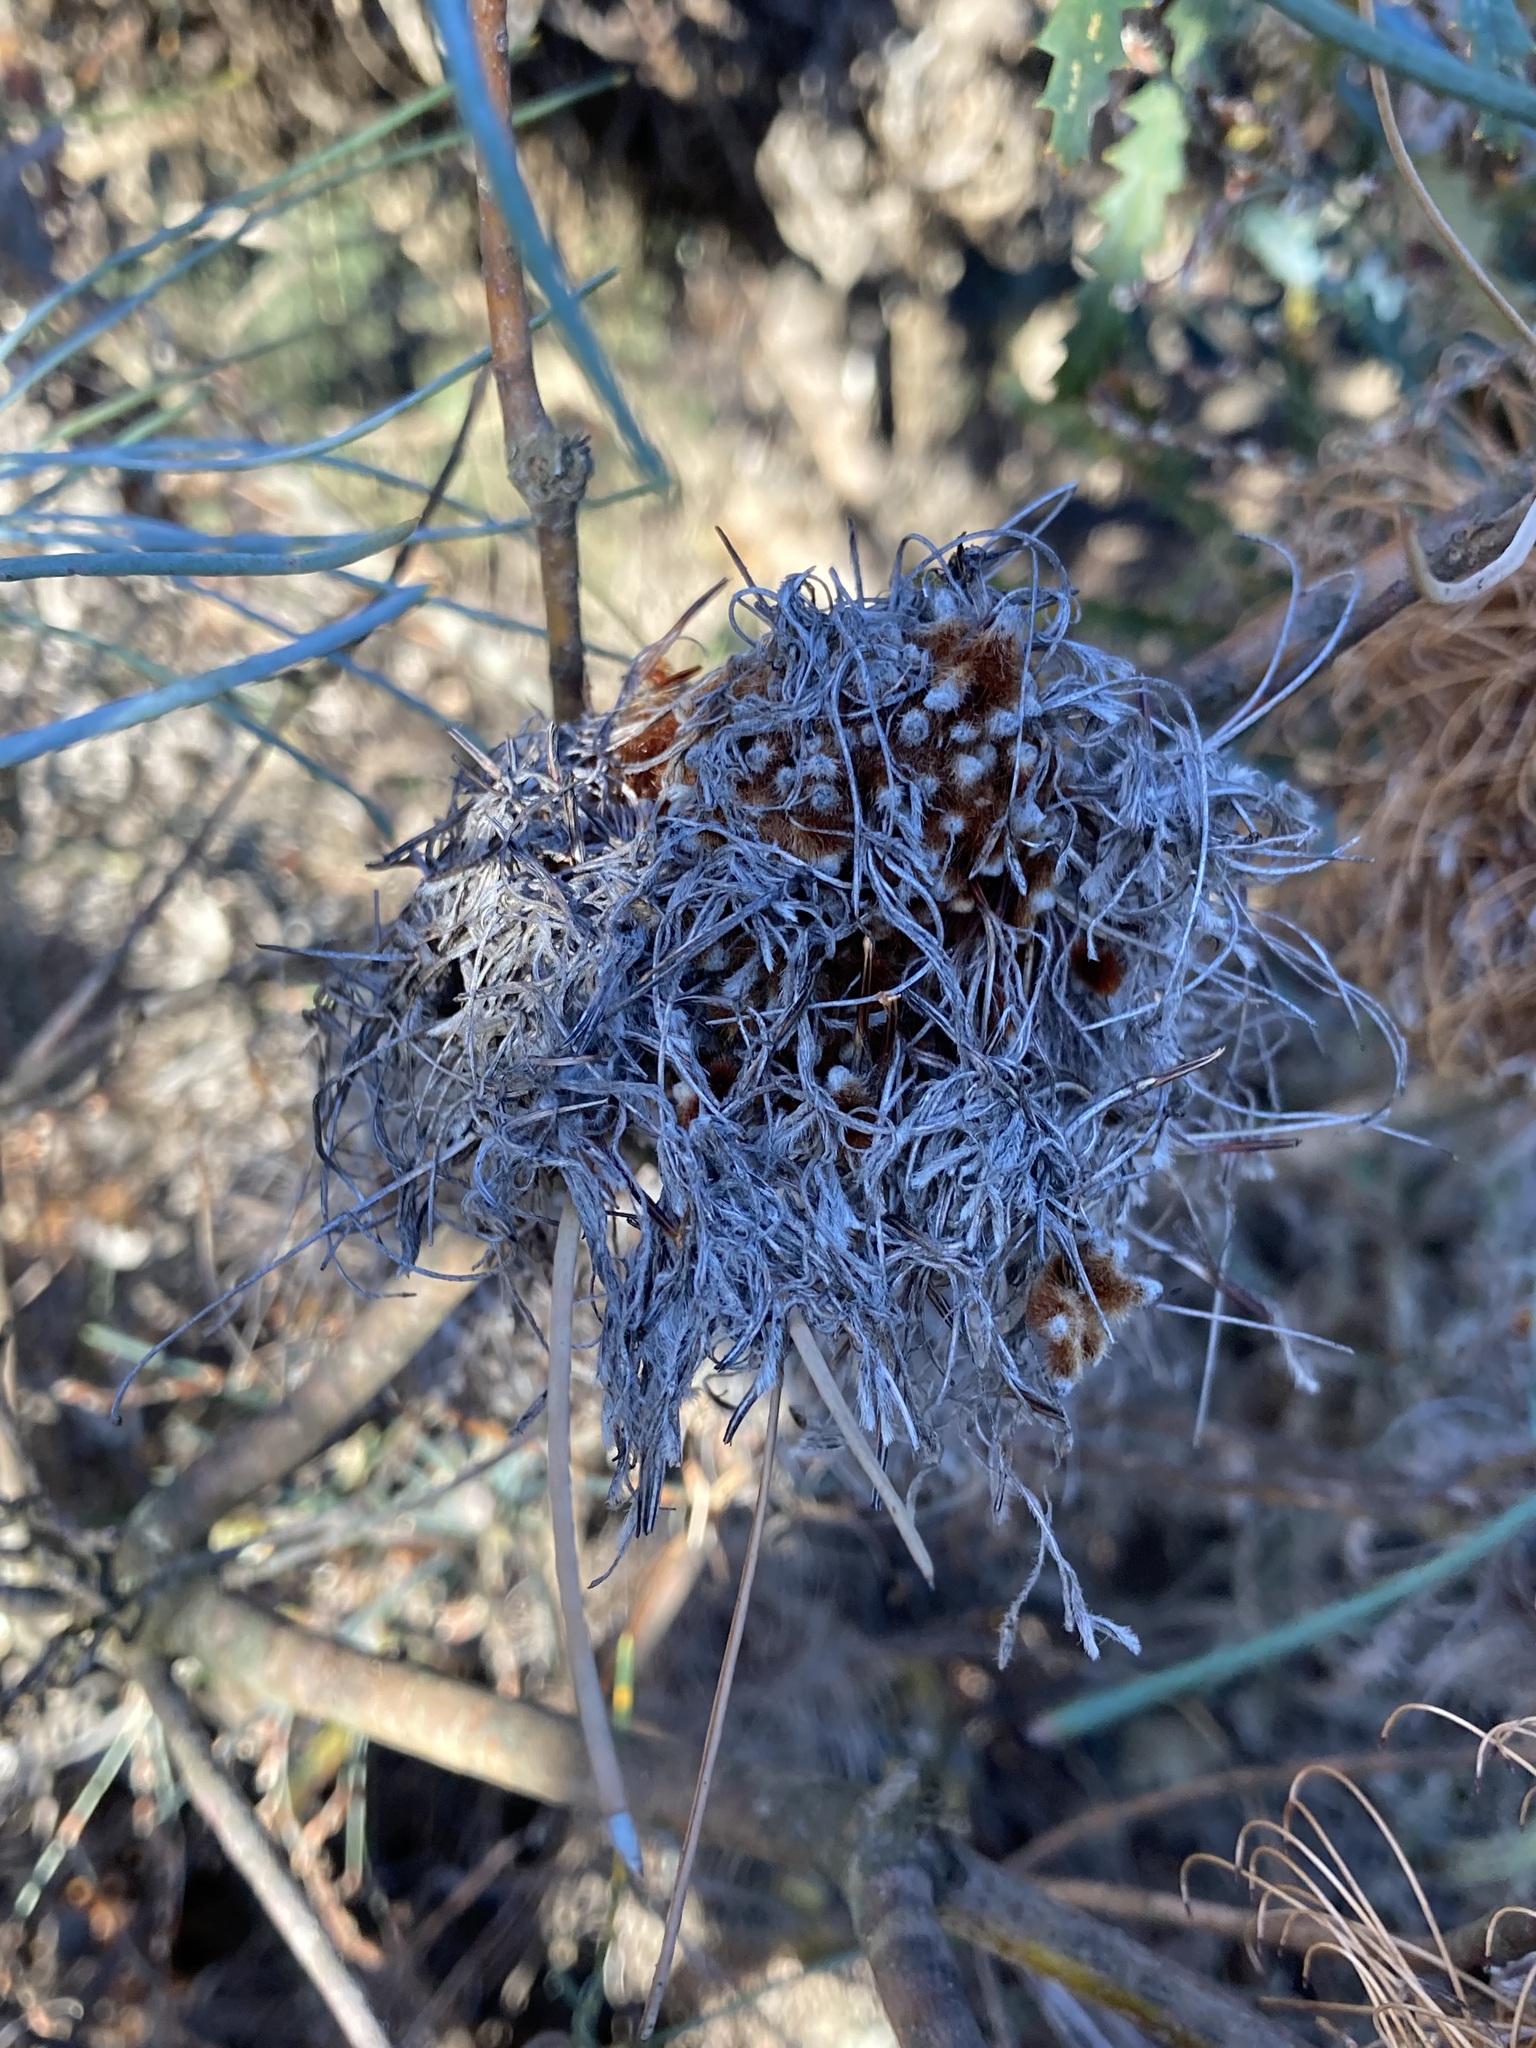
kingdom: Plantae
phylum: Tracheophyta
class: Magnoliopsida
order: Proteales
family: Proteaceae
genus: Banksia
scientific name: Banksia sphaerocarpa
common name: Fox banksia
